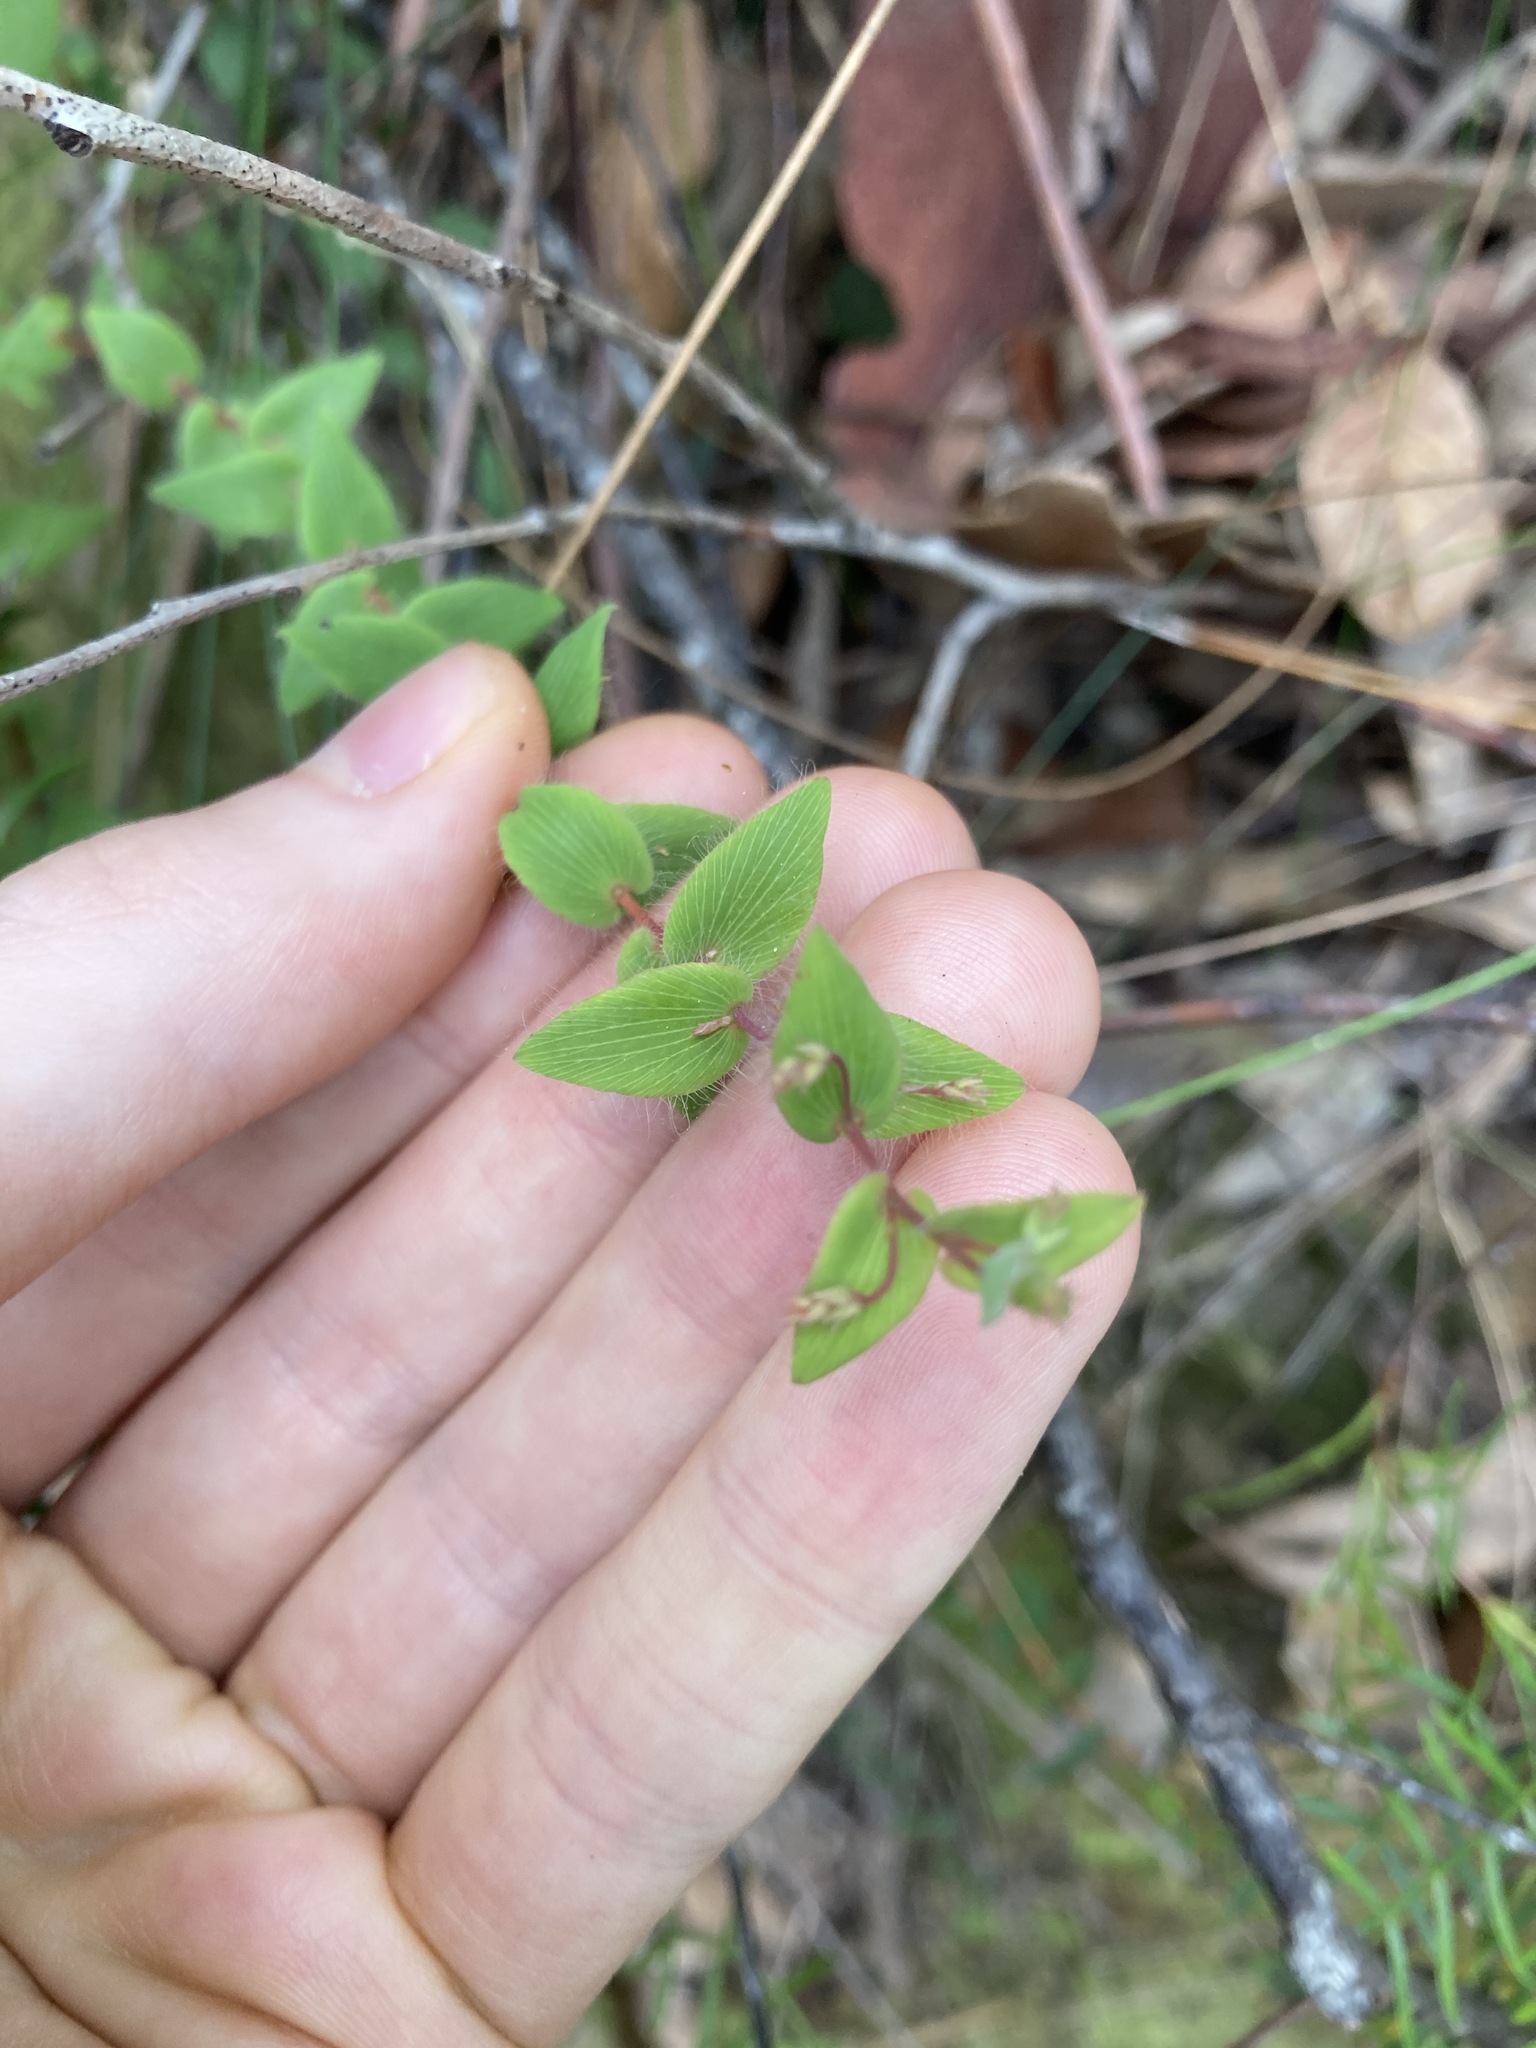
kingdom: Plantae
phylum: Tracheophyta
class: Magnoliopsida
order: Ericales
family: Ericaceae
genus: Leucopogon
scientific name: Leucopogon amplexicaulis
